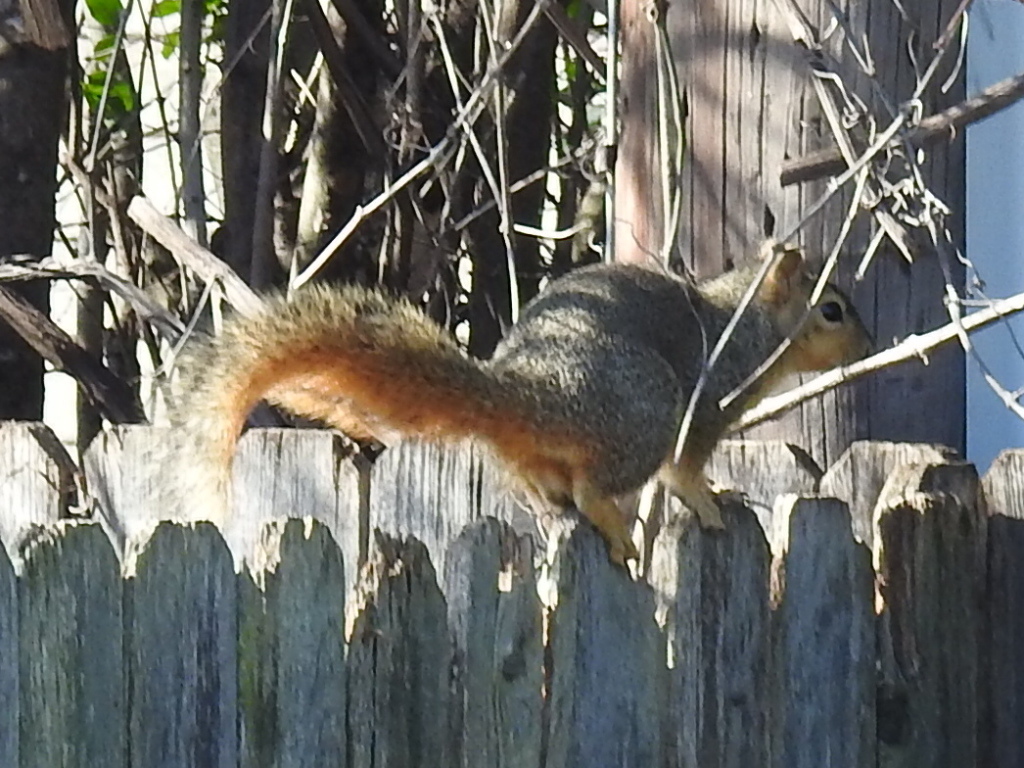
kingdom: Animalia
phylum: Chordata
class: Mammalia
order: Rodentia
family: Sciuridae
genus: Sciurus
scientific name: Sciurus niger
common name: Fox squirrel
